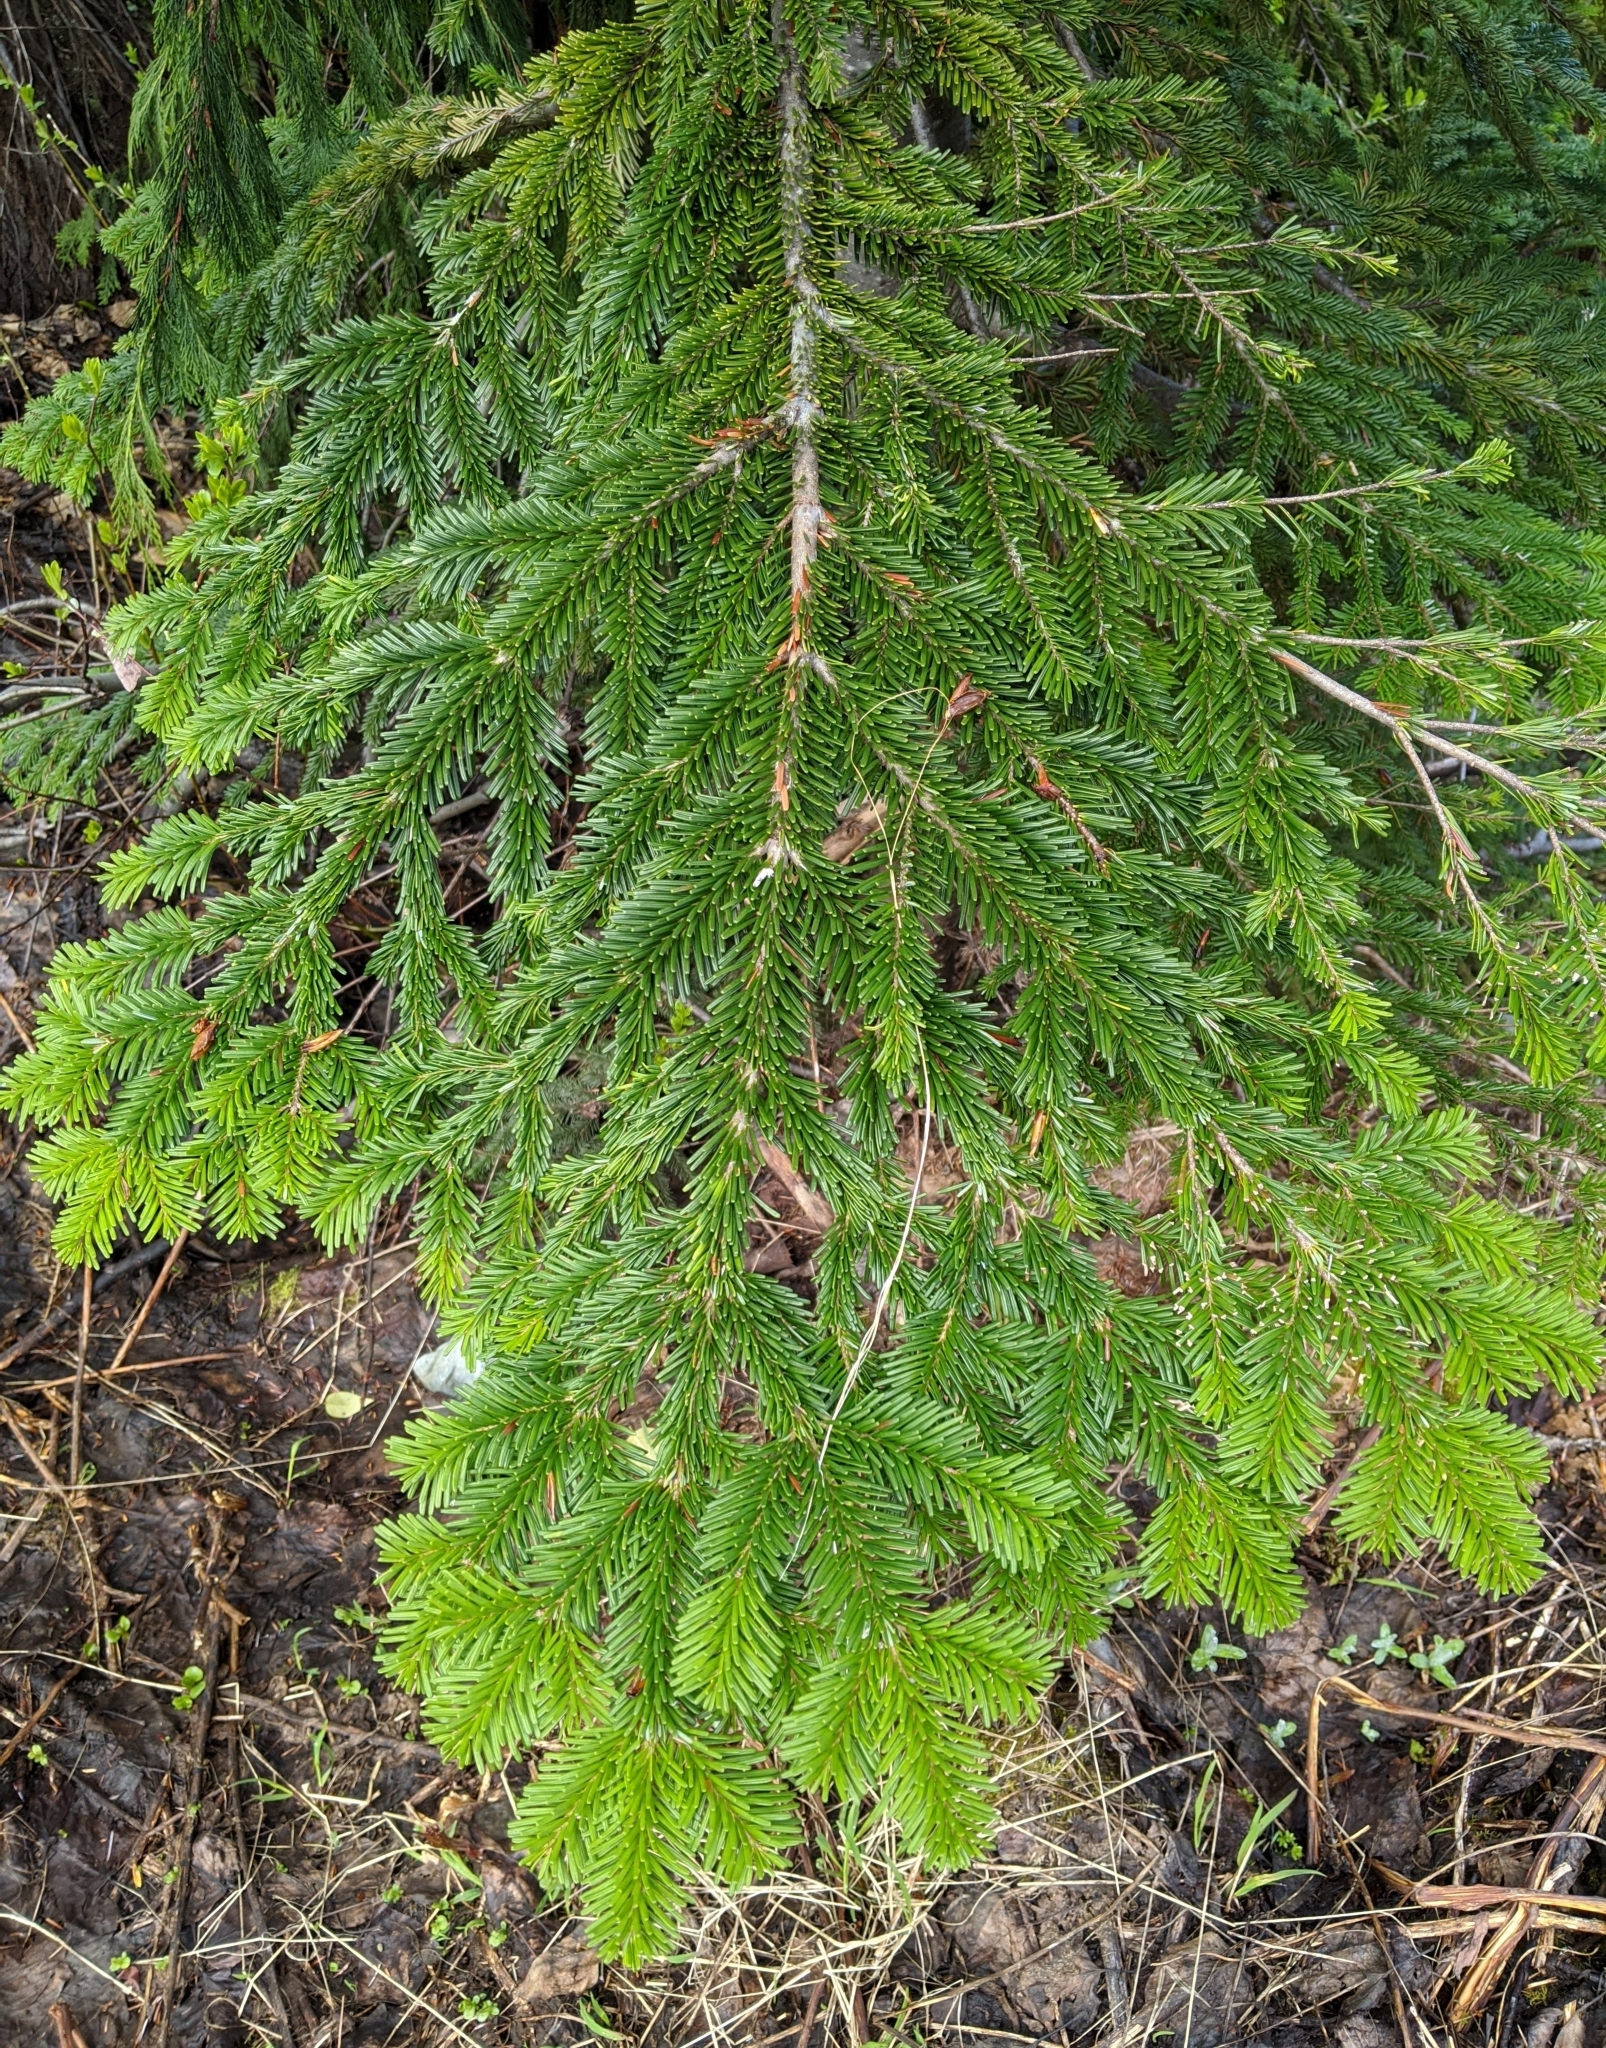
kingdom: Plantae
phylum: Tracheophyta
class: Pinopsida
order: Pinales
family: Pinaceae
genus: Abies
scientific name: Abies amabilis
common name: Pacific silver fir
